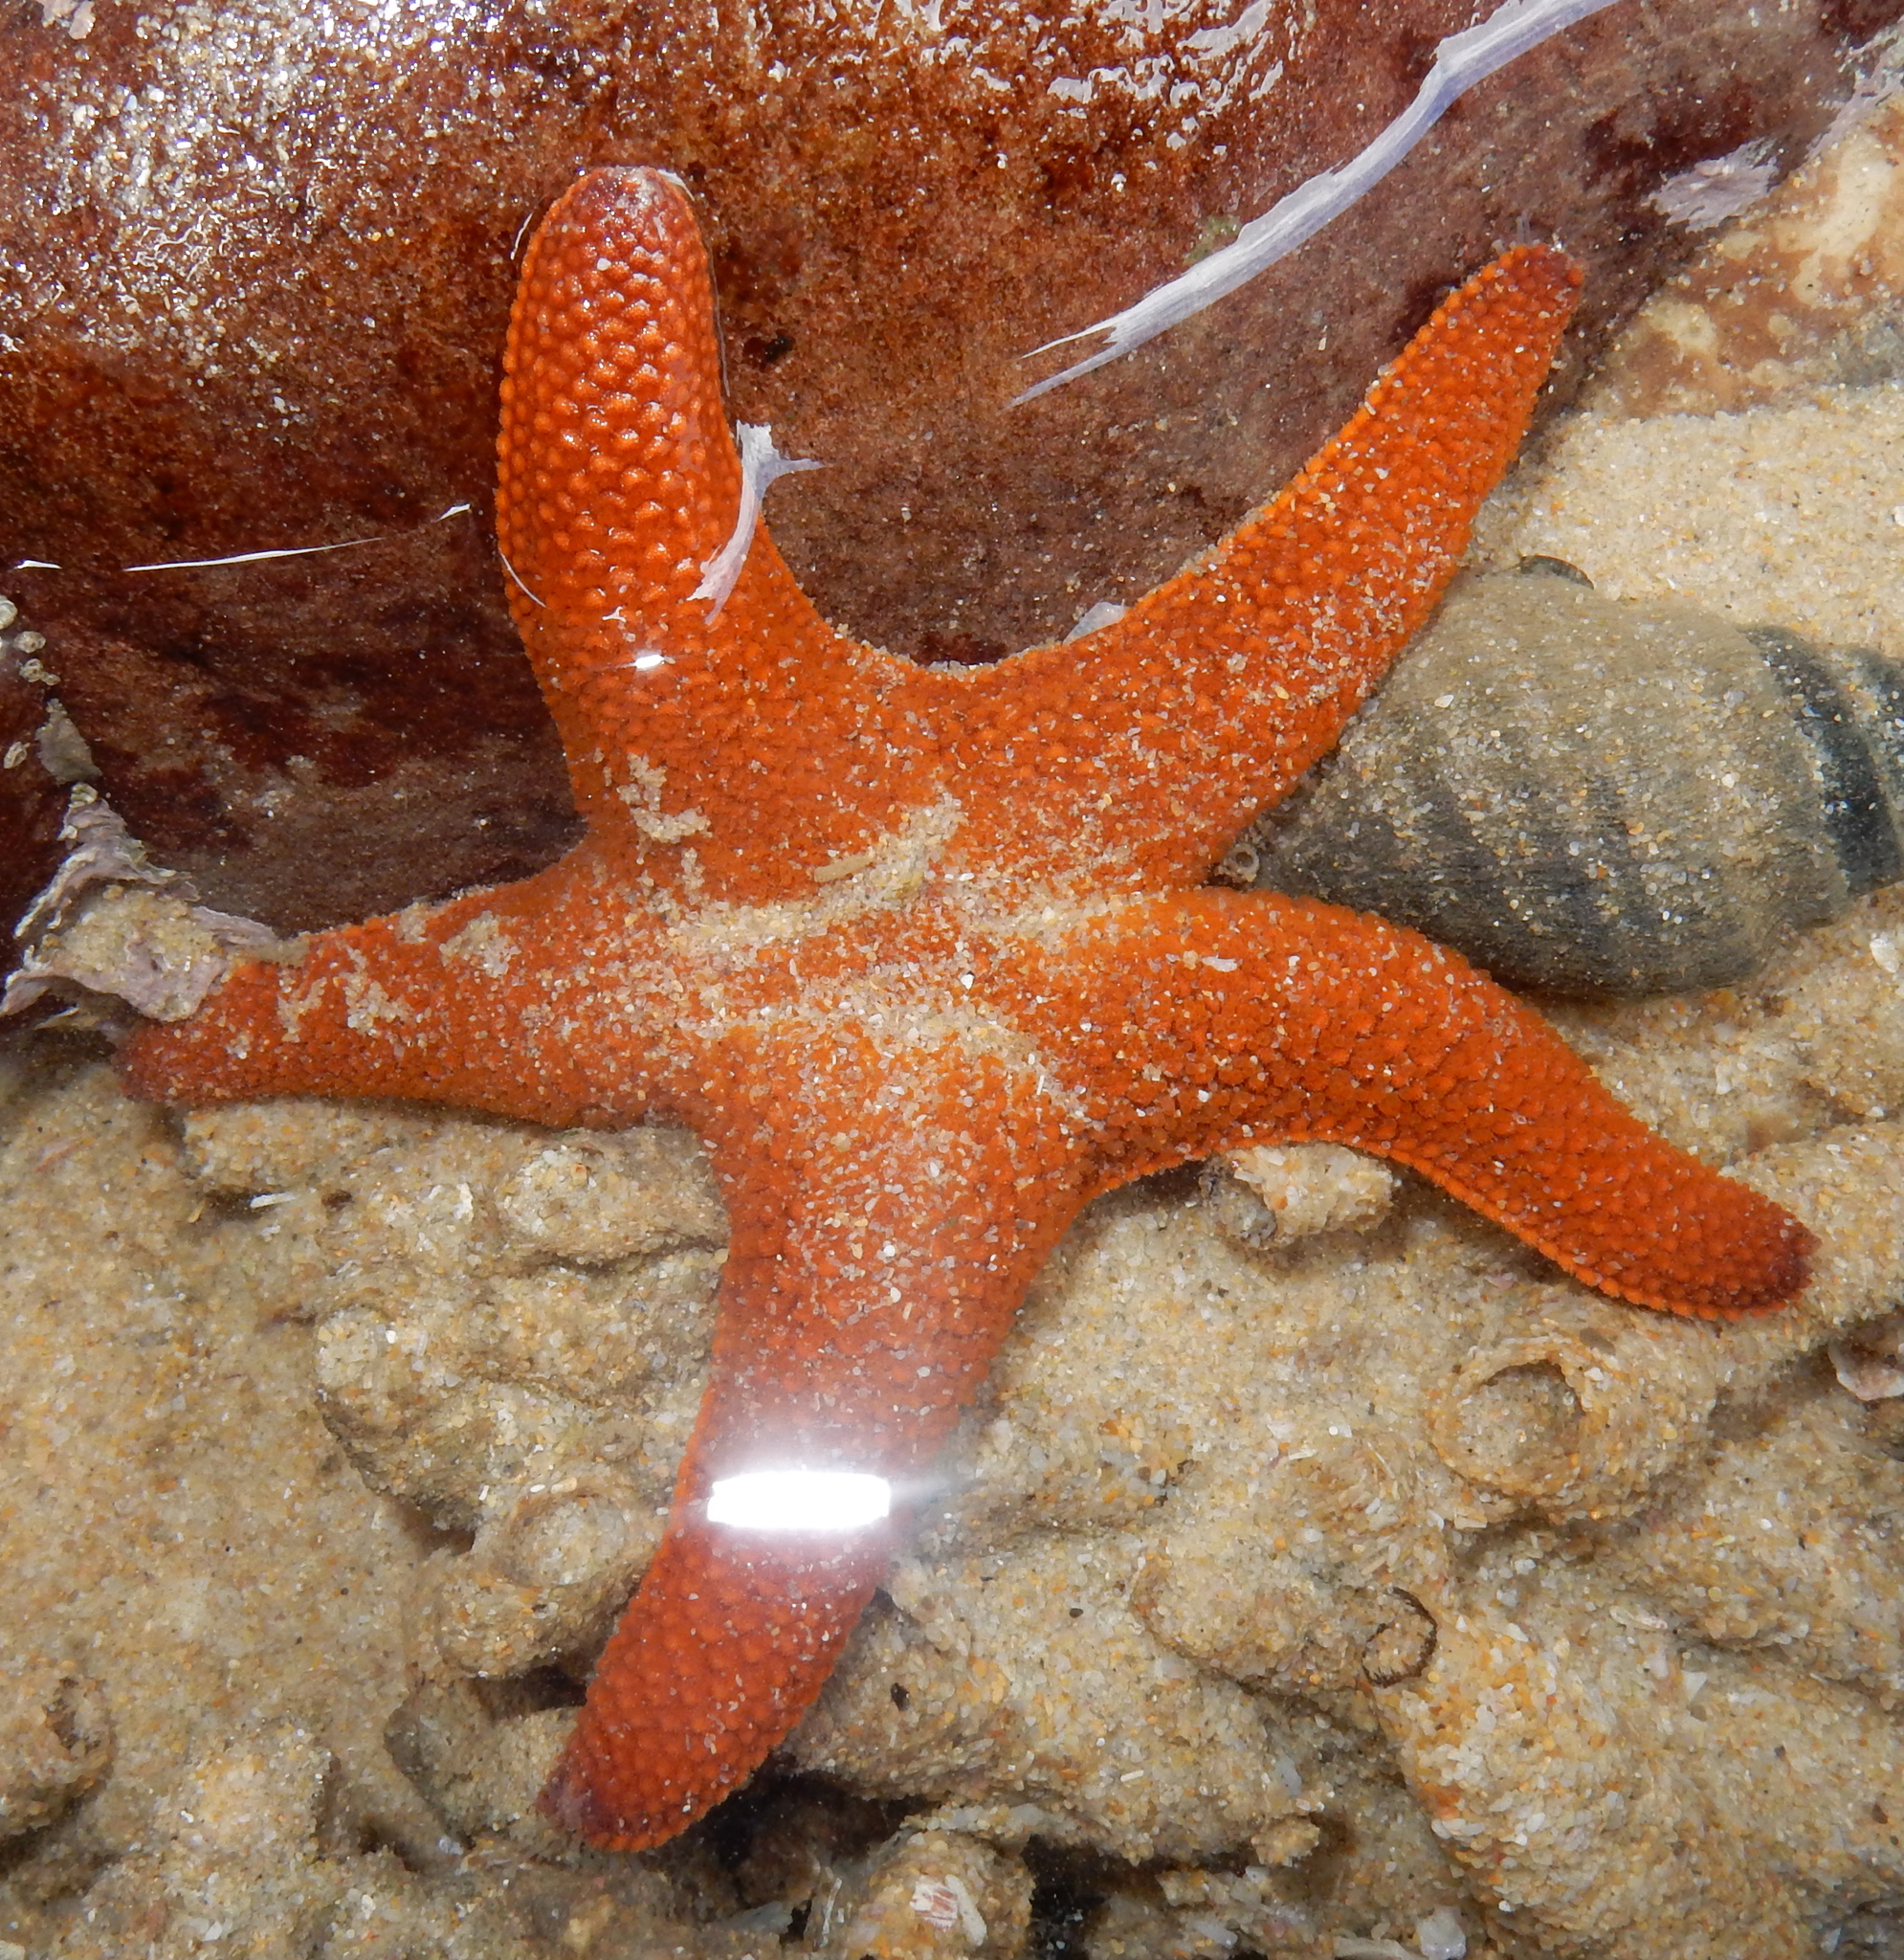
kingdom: Animalia
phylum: Echinodermata
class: Asteroidea
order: Valvatida
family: Asterinidae
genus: Callopatiria
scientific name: Callopatiria granifera
